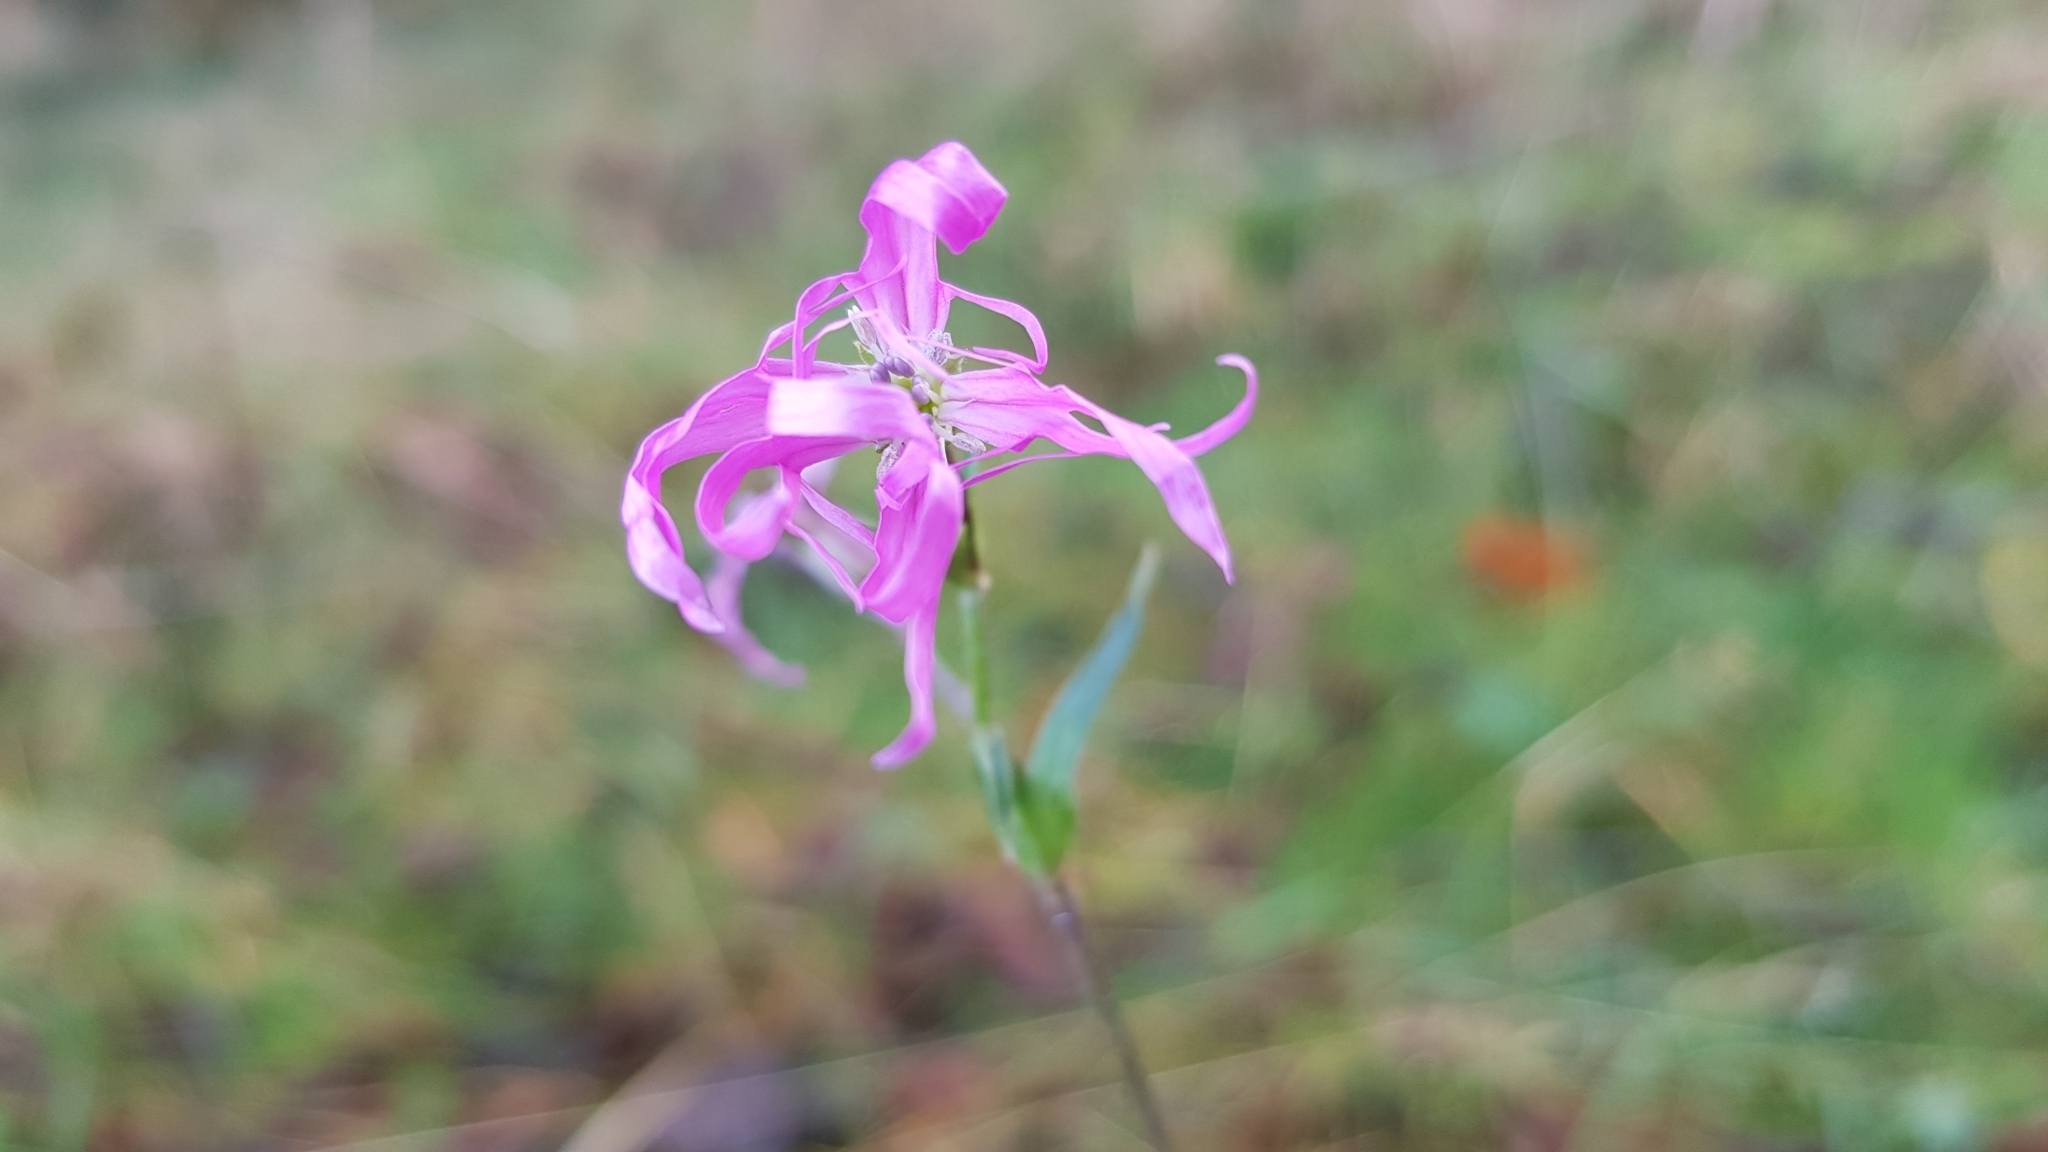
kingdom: Plantae
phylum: Tracheophyta
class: Magnoliopsida
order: Caryophyllales
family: Caryophyllaceae
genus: Silene
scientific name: Silene flos-cuculi
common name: Ragged-robin
